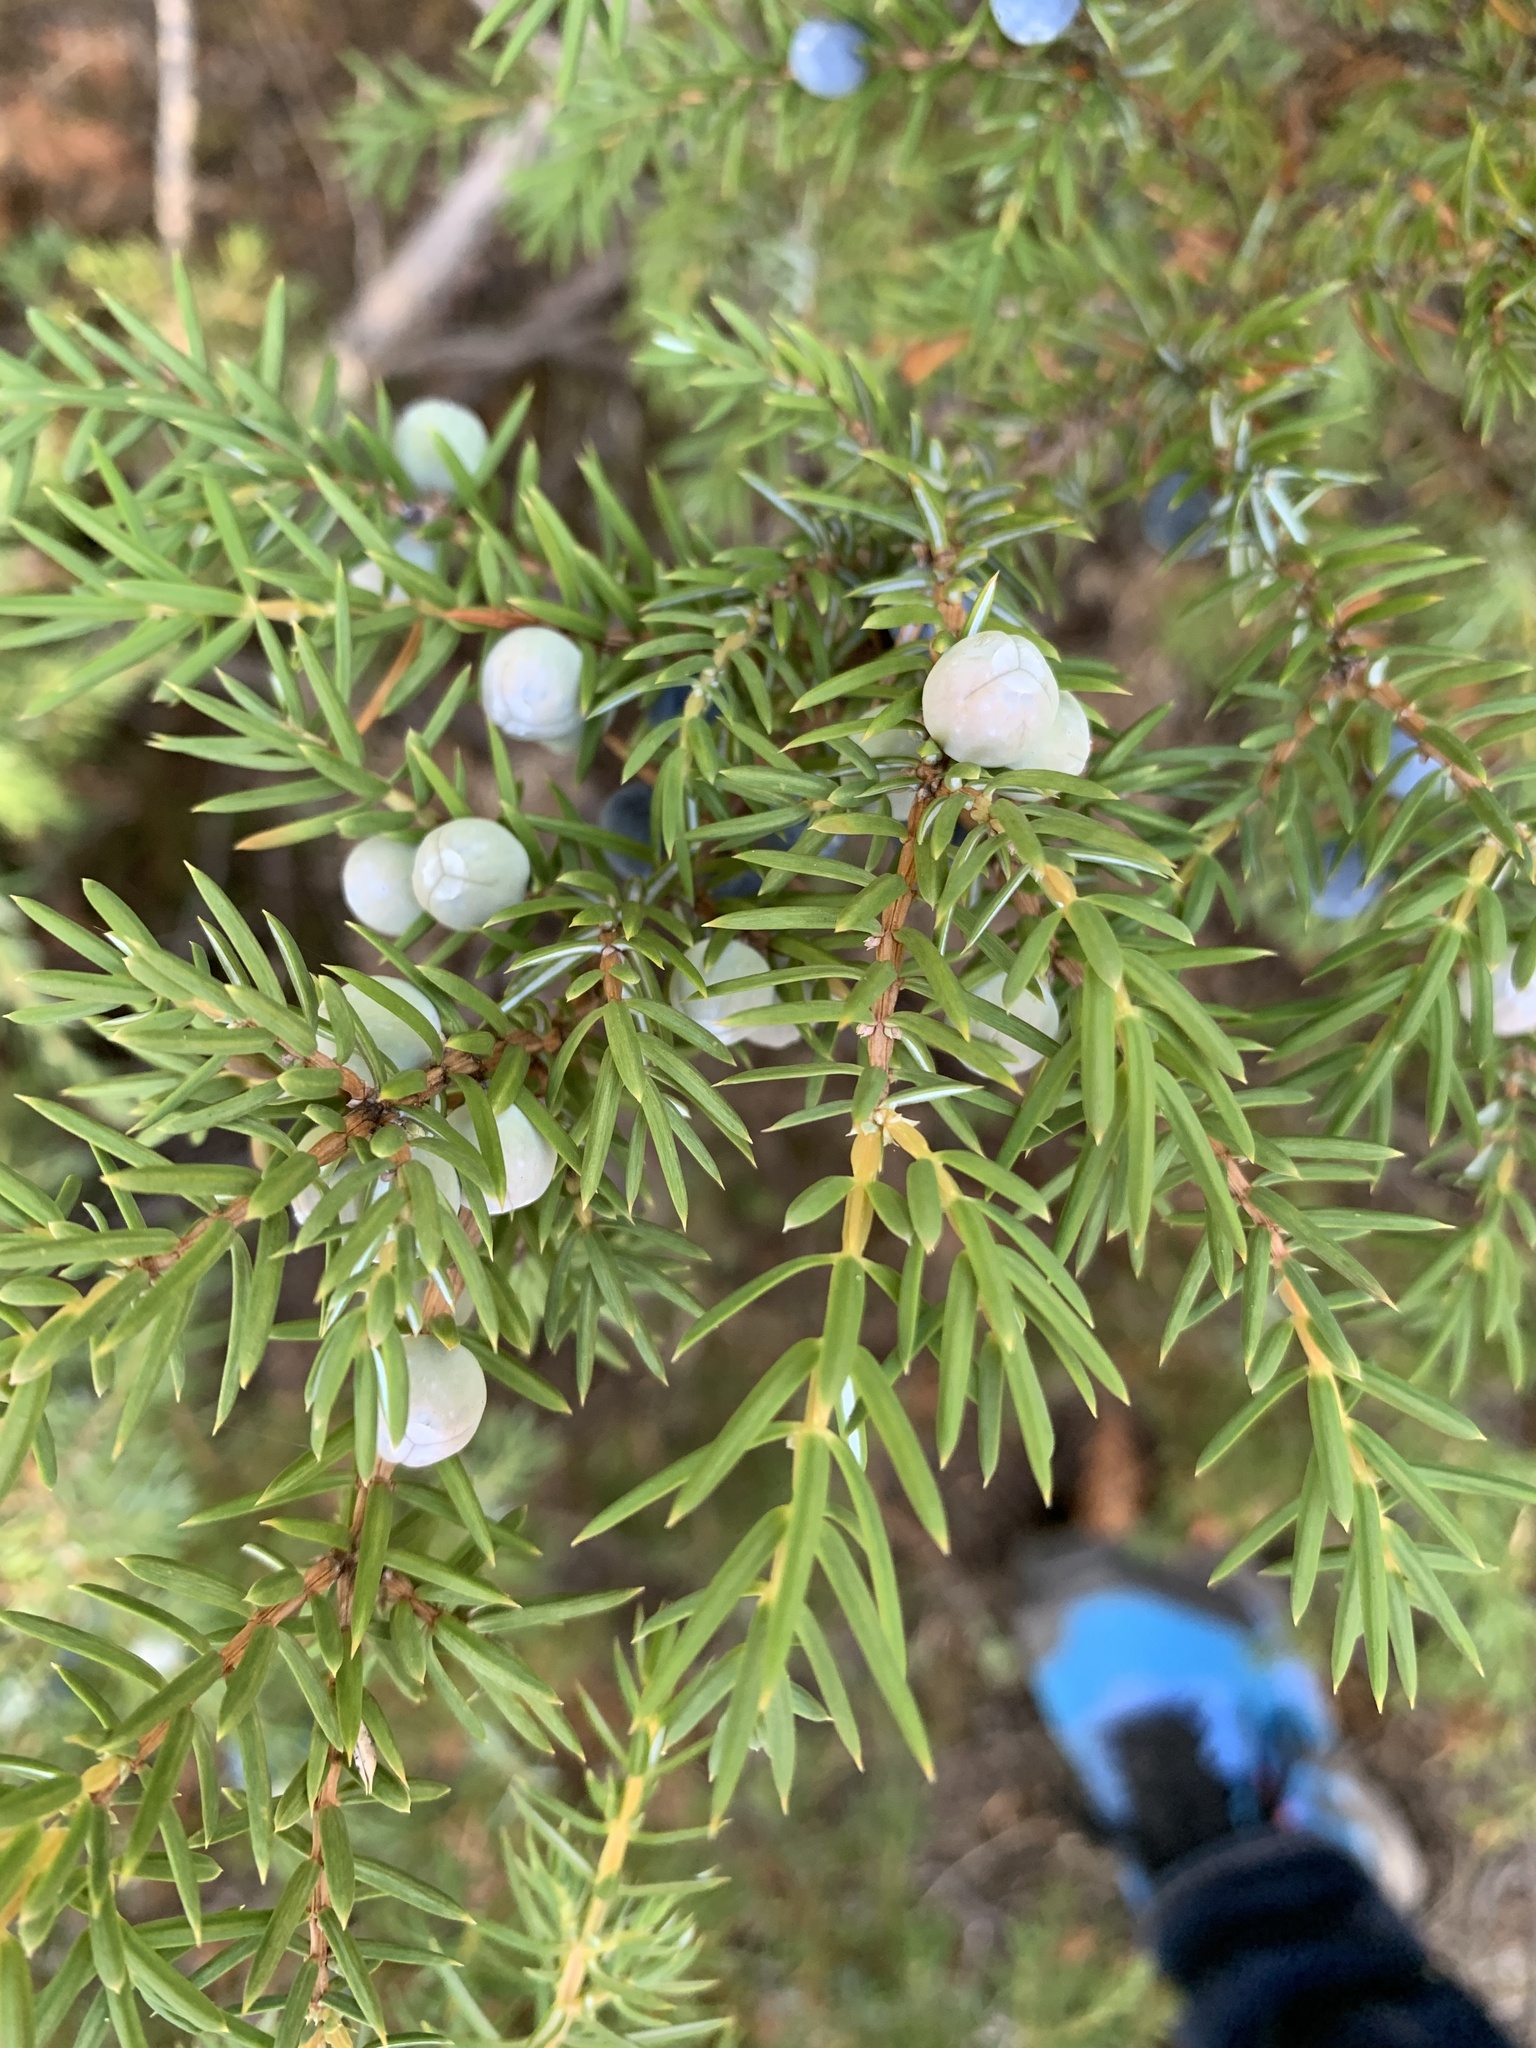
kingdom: Plantae
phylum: Tracheophyta
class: Pinopsida
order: Pinales
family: Cupressaceae
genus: Juniperus
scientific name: Juniperus communis
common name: Common juniper
